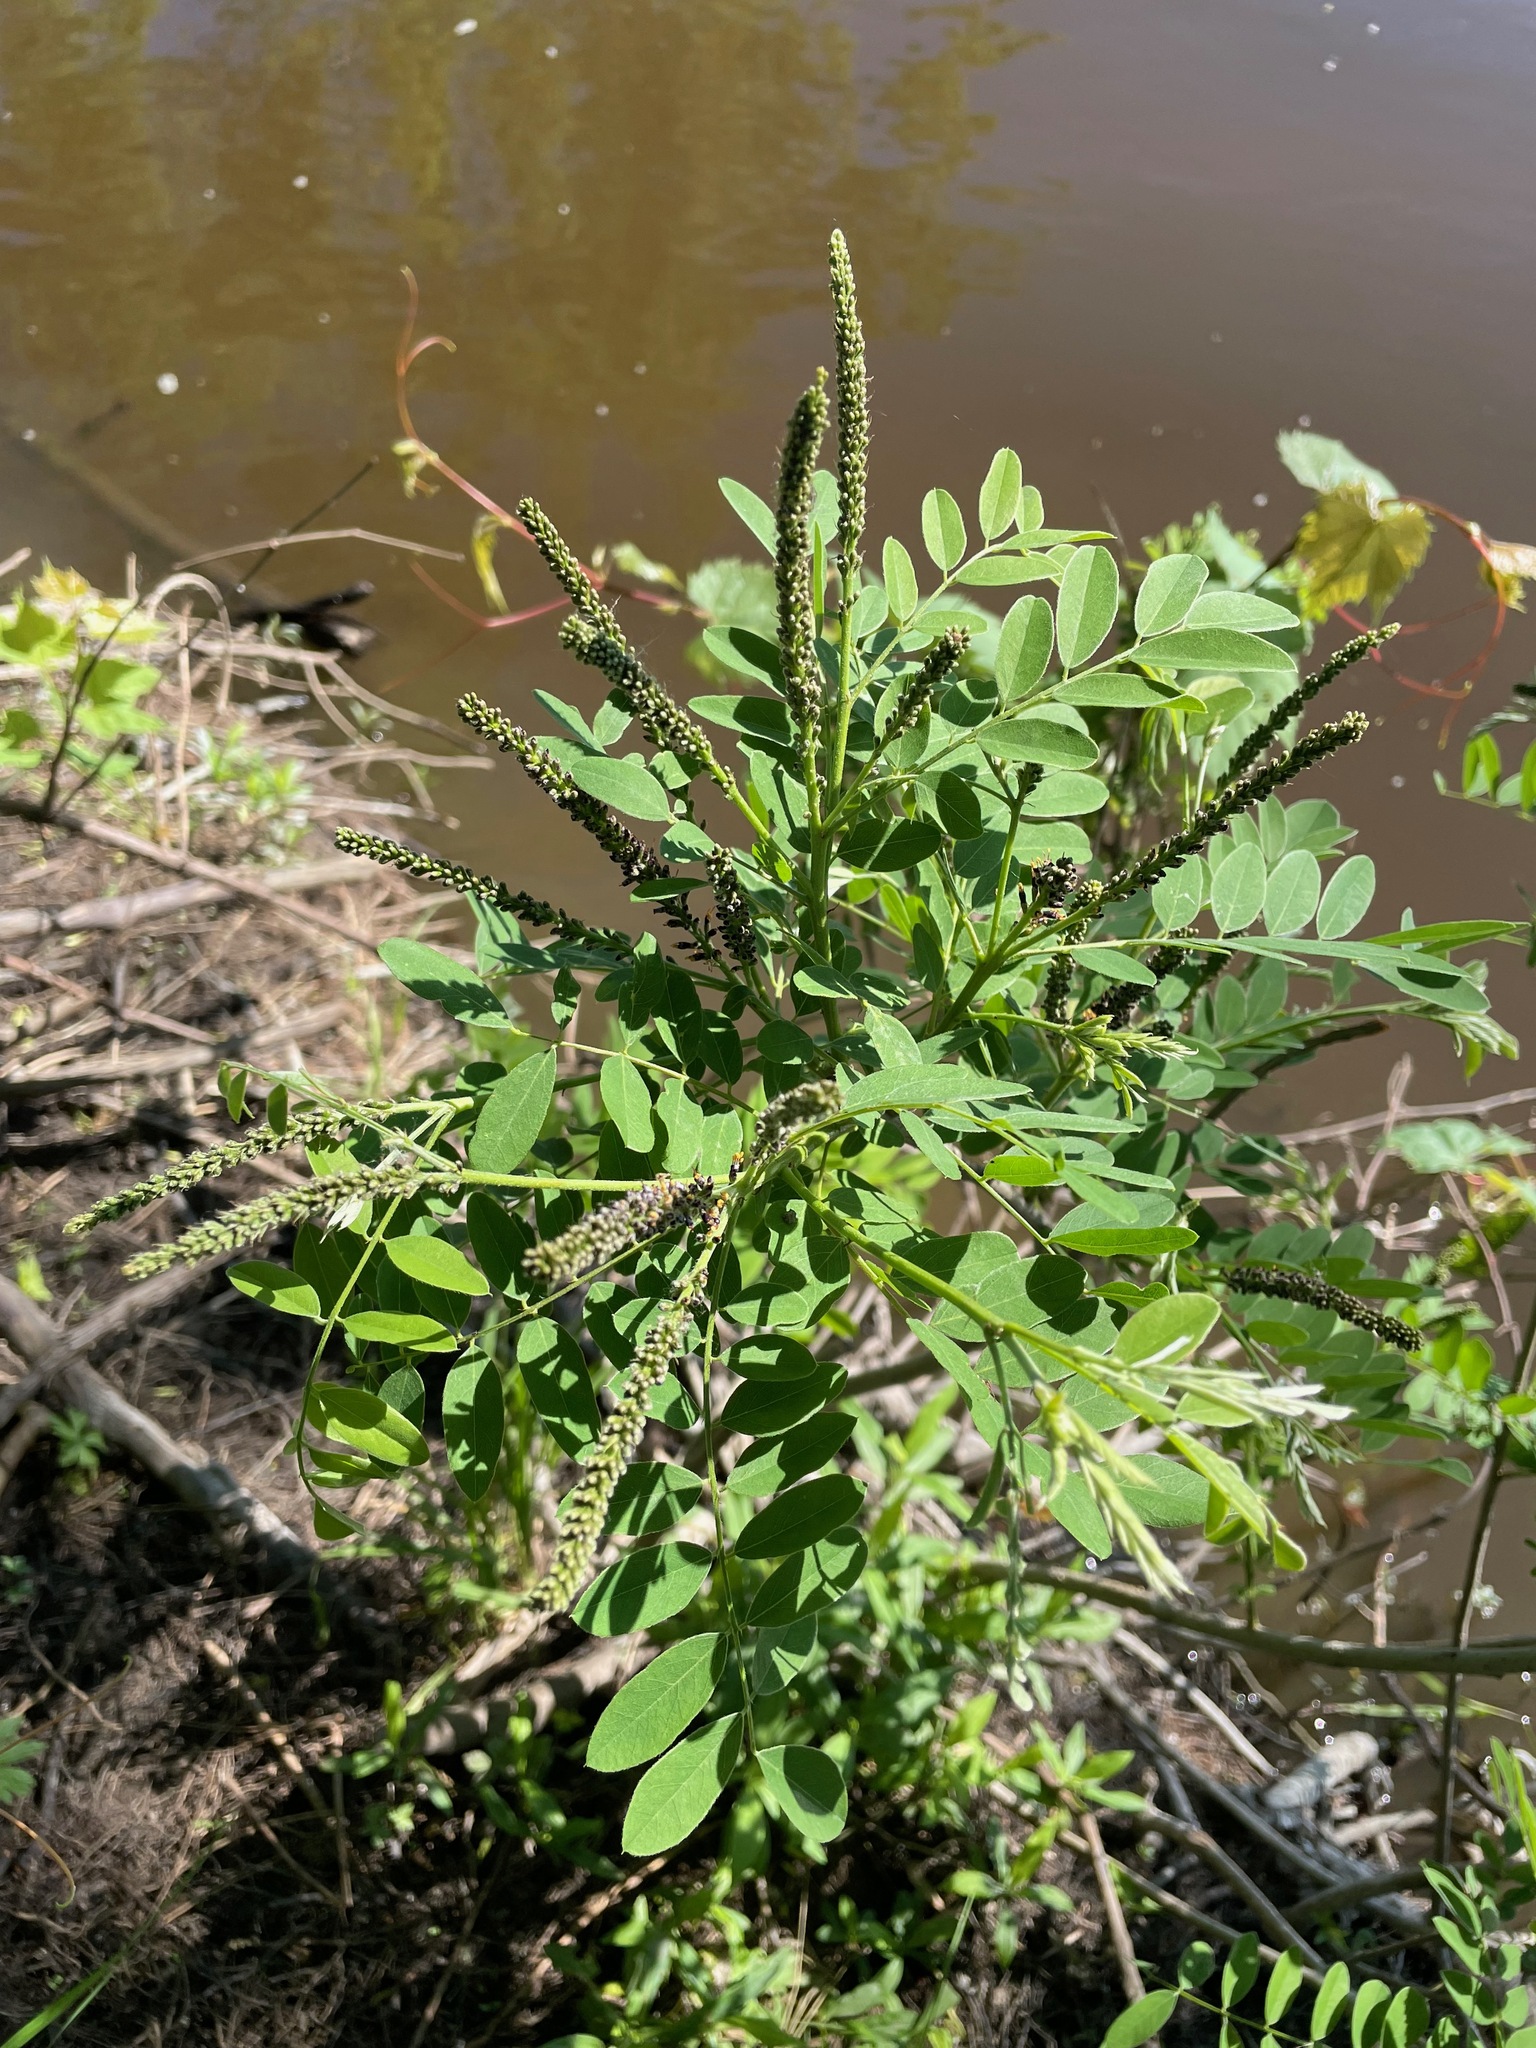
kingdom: Plantae
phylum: Tracheophyta
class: Magnoliopsida
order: Fabales
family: Fabaceae
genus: Amorpha
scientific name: Amorpha fruticosa
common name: False indigo
